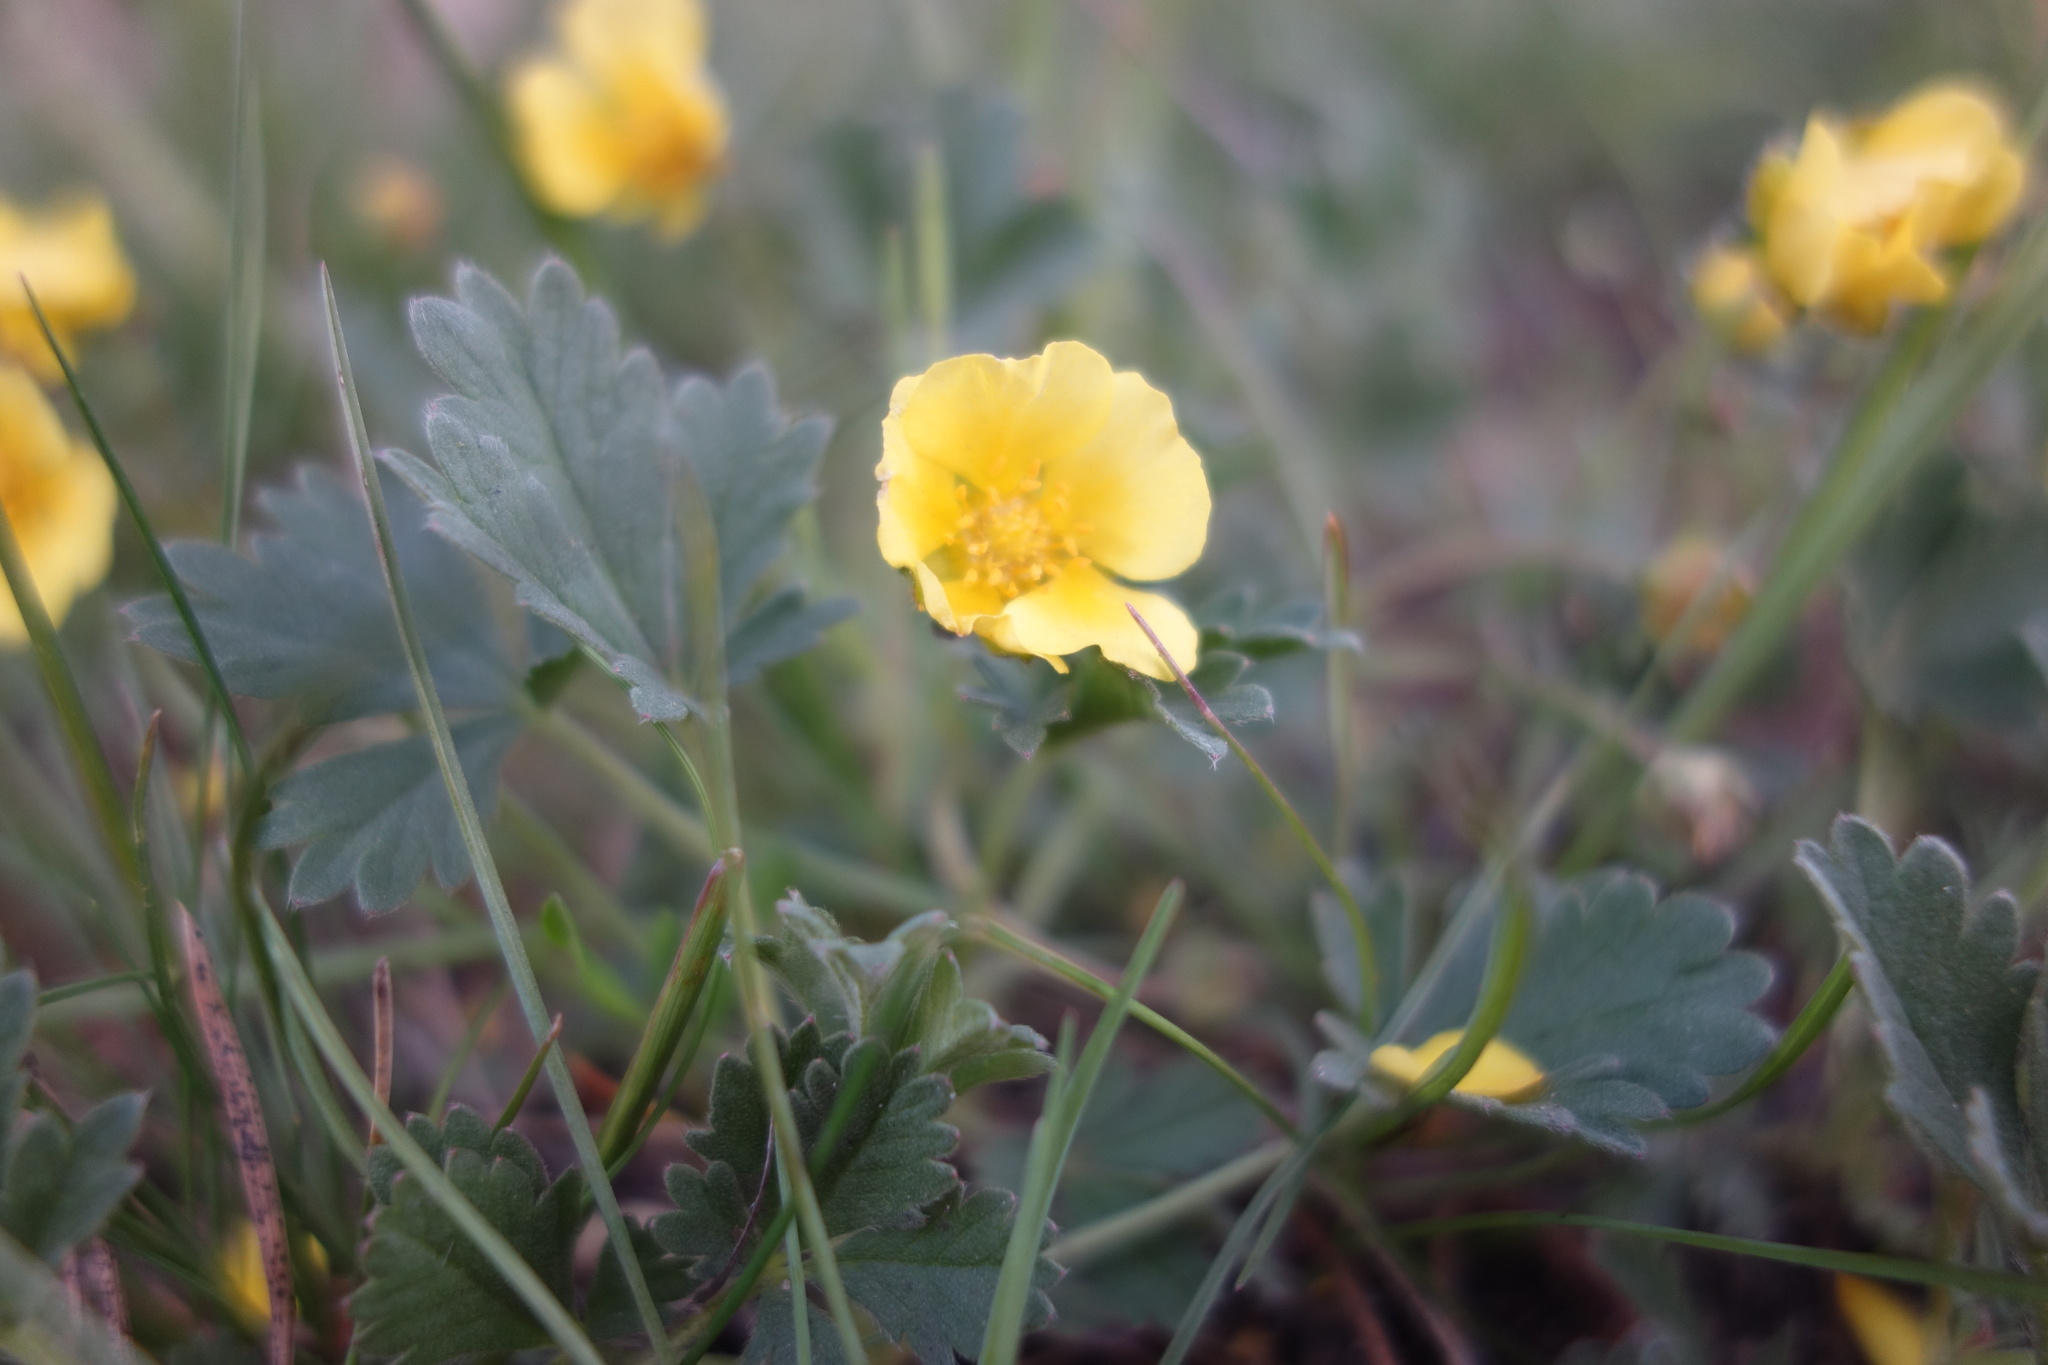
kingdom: Plantae
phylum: Tracheophyta
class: Magnoliopsida
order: Rosales
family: Rosaceae
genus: Potentilla
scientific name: Potentilla incana
